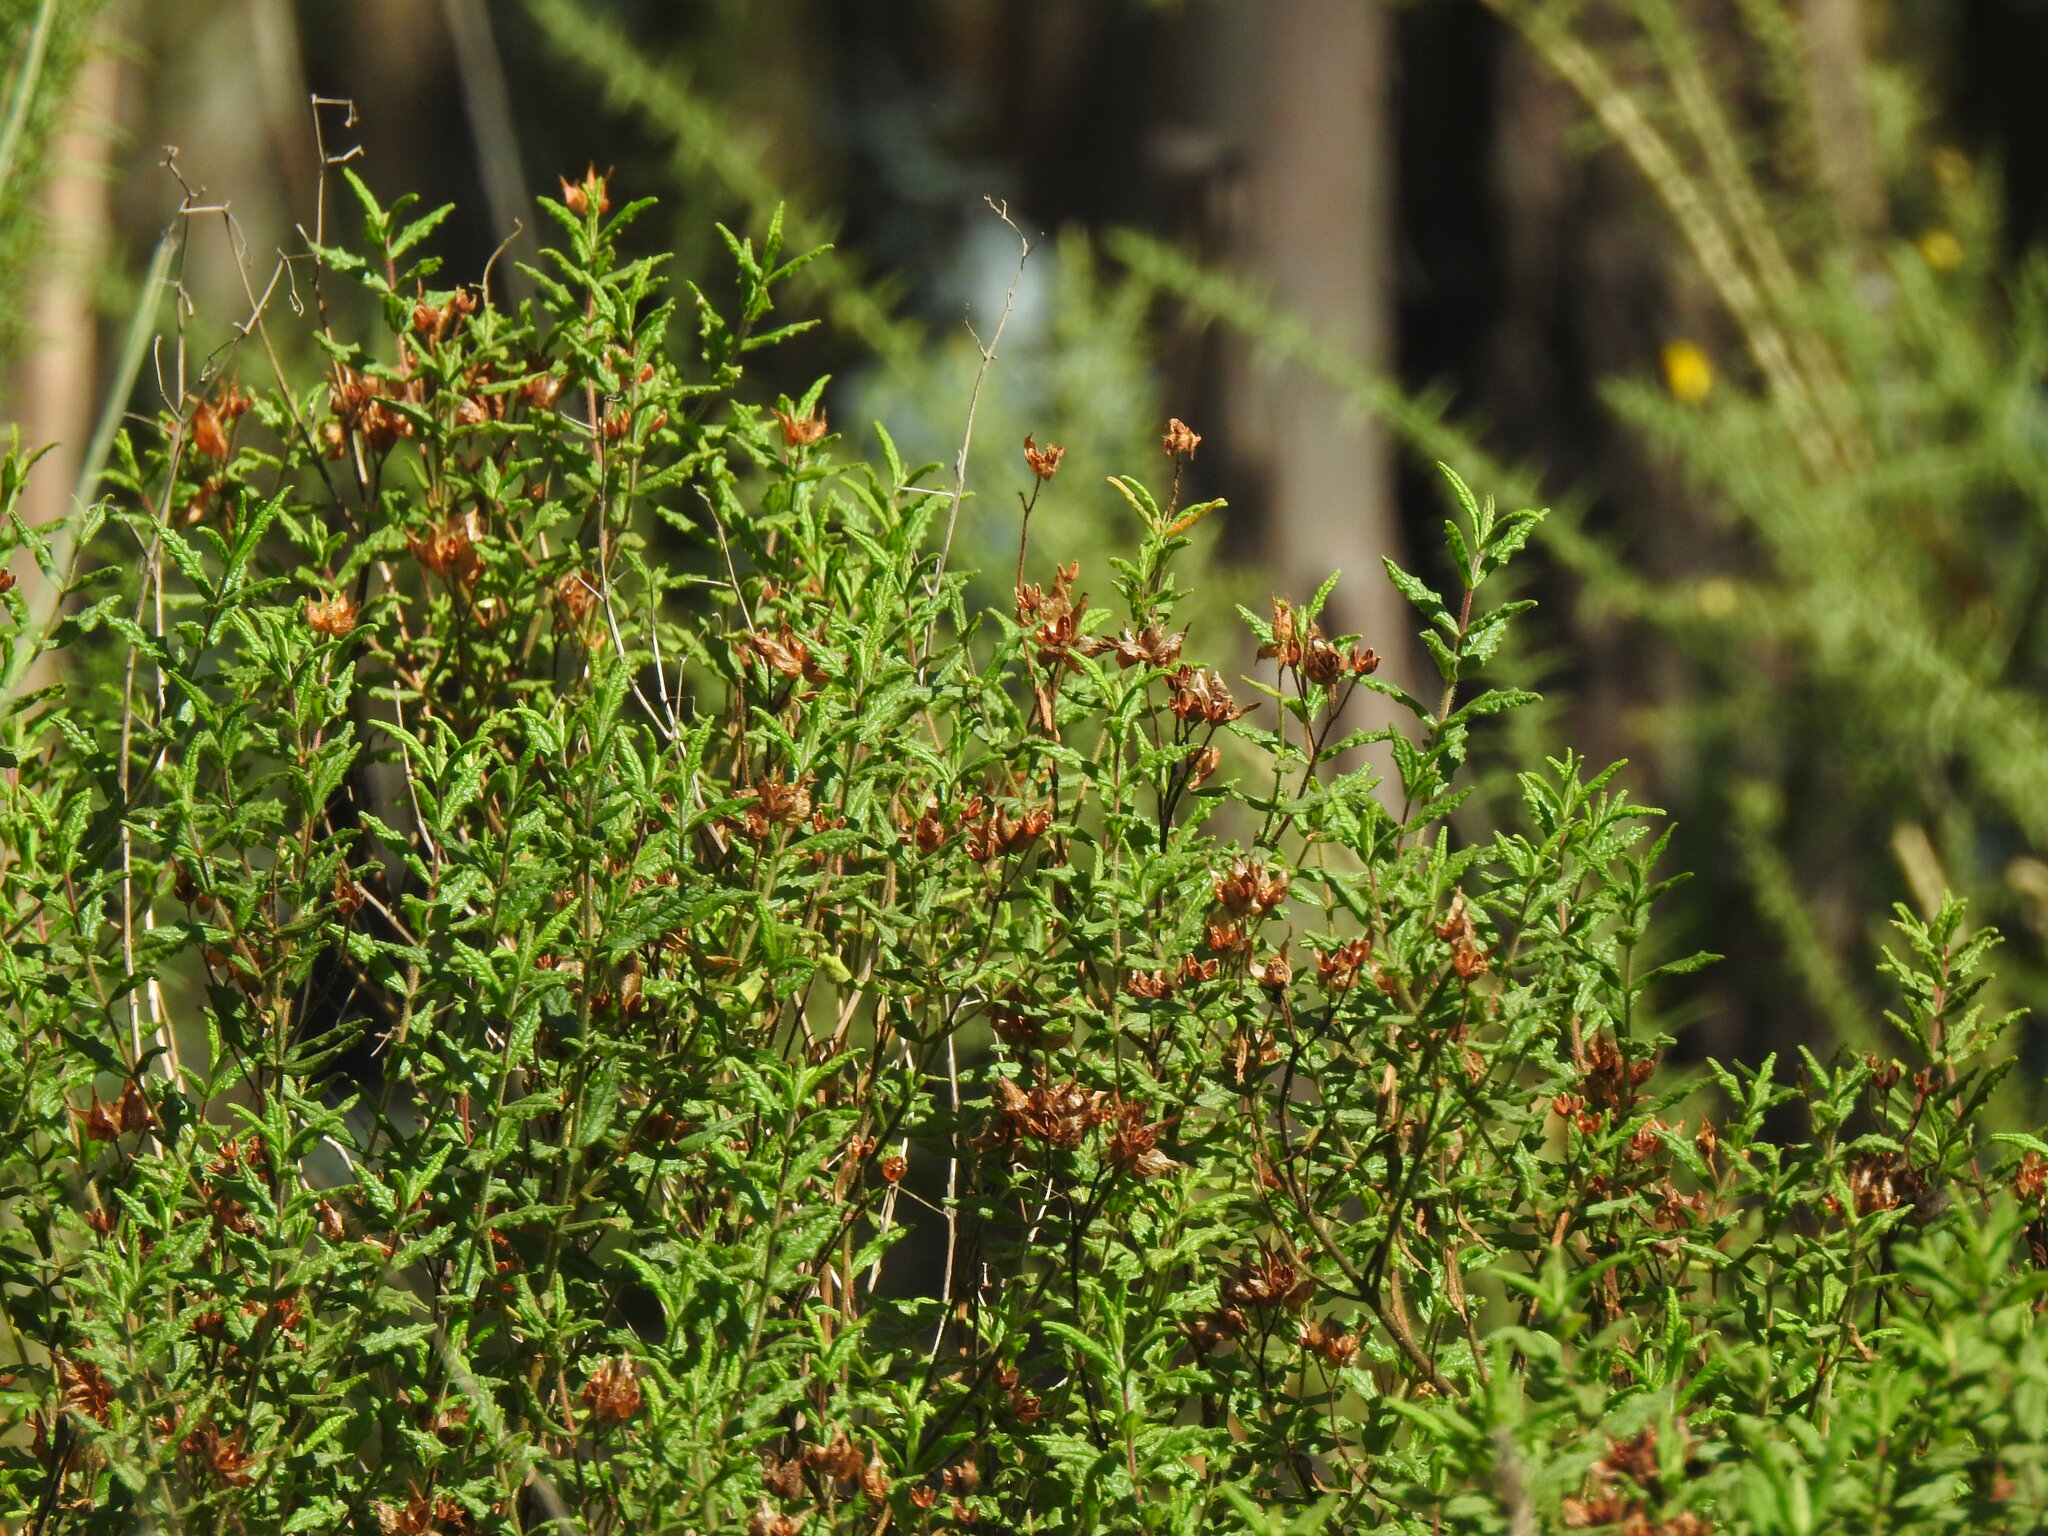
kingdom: Plantae
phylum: Tracheophyta
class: Magnoliopsida
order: Malvales
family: Cistaceae
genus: Cistus
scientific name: Cistus inflatus
